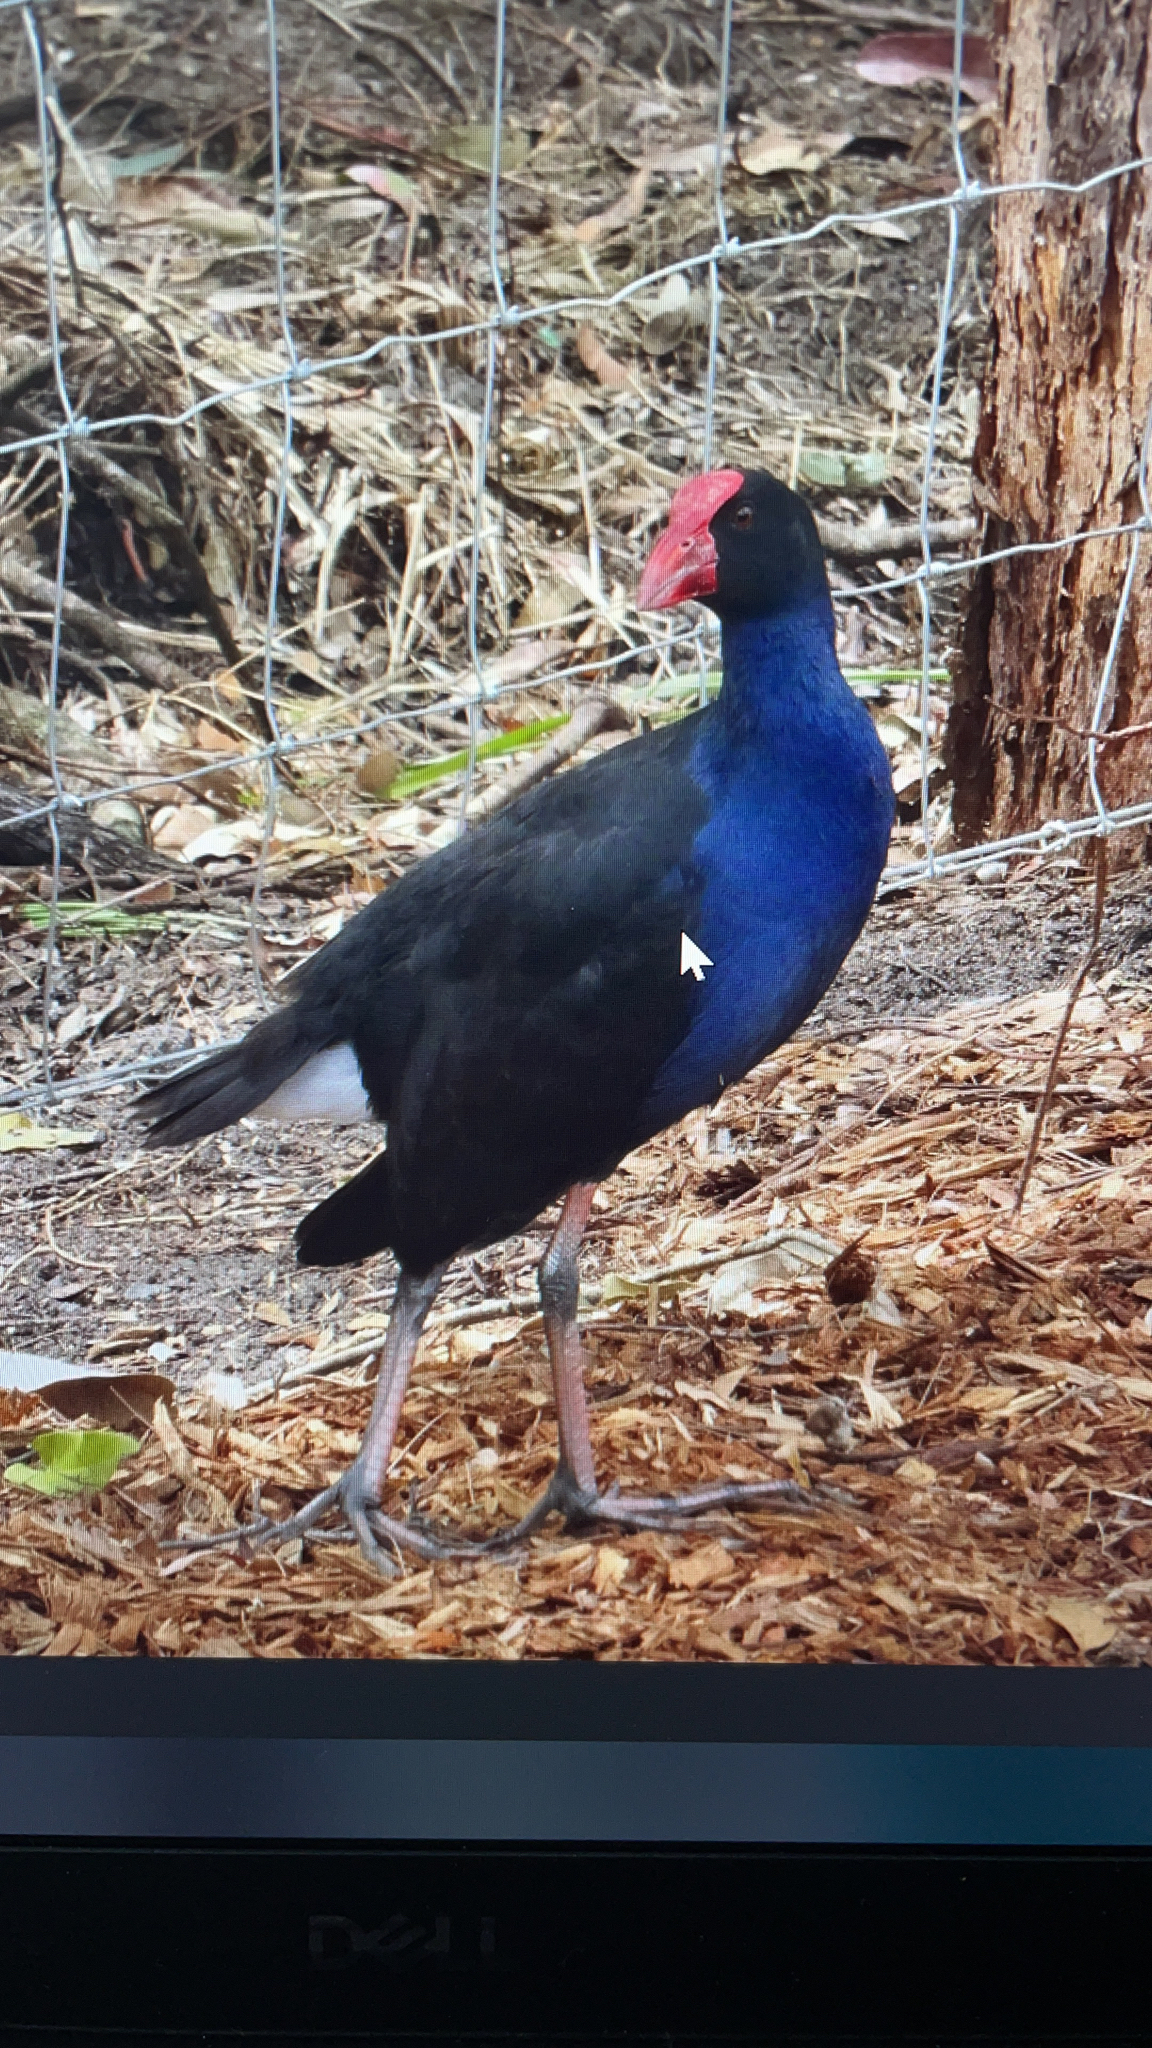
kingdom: Animalia
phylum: Chordata
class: Aves
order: Gruiformes
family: Rallidae
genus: Porphyrio
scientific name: Porphyrio melanotus
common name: Australasian swamphen
